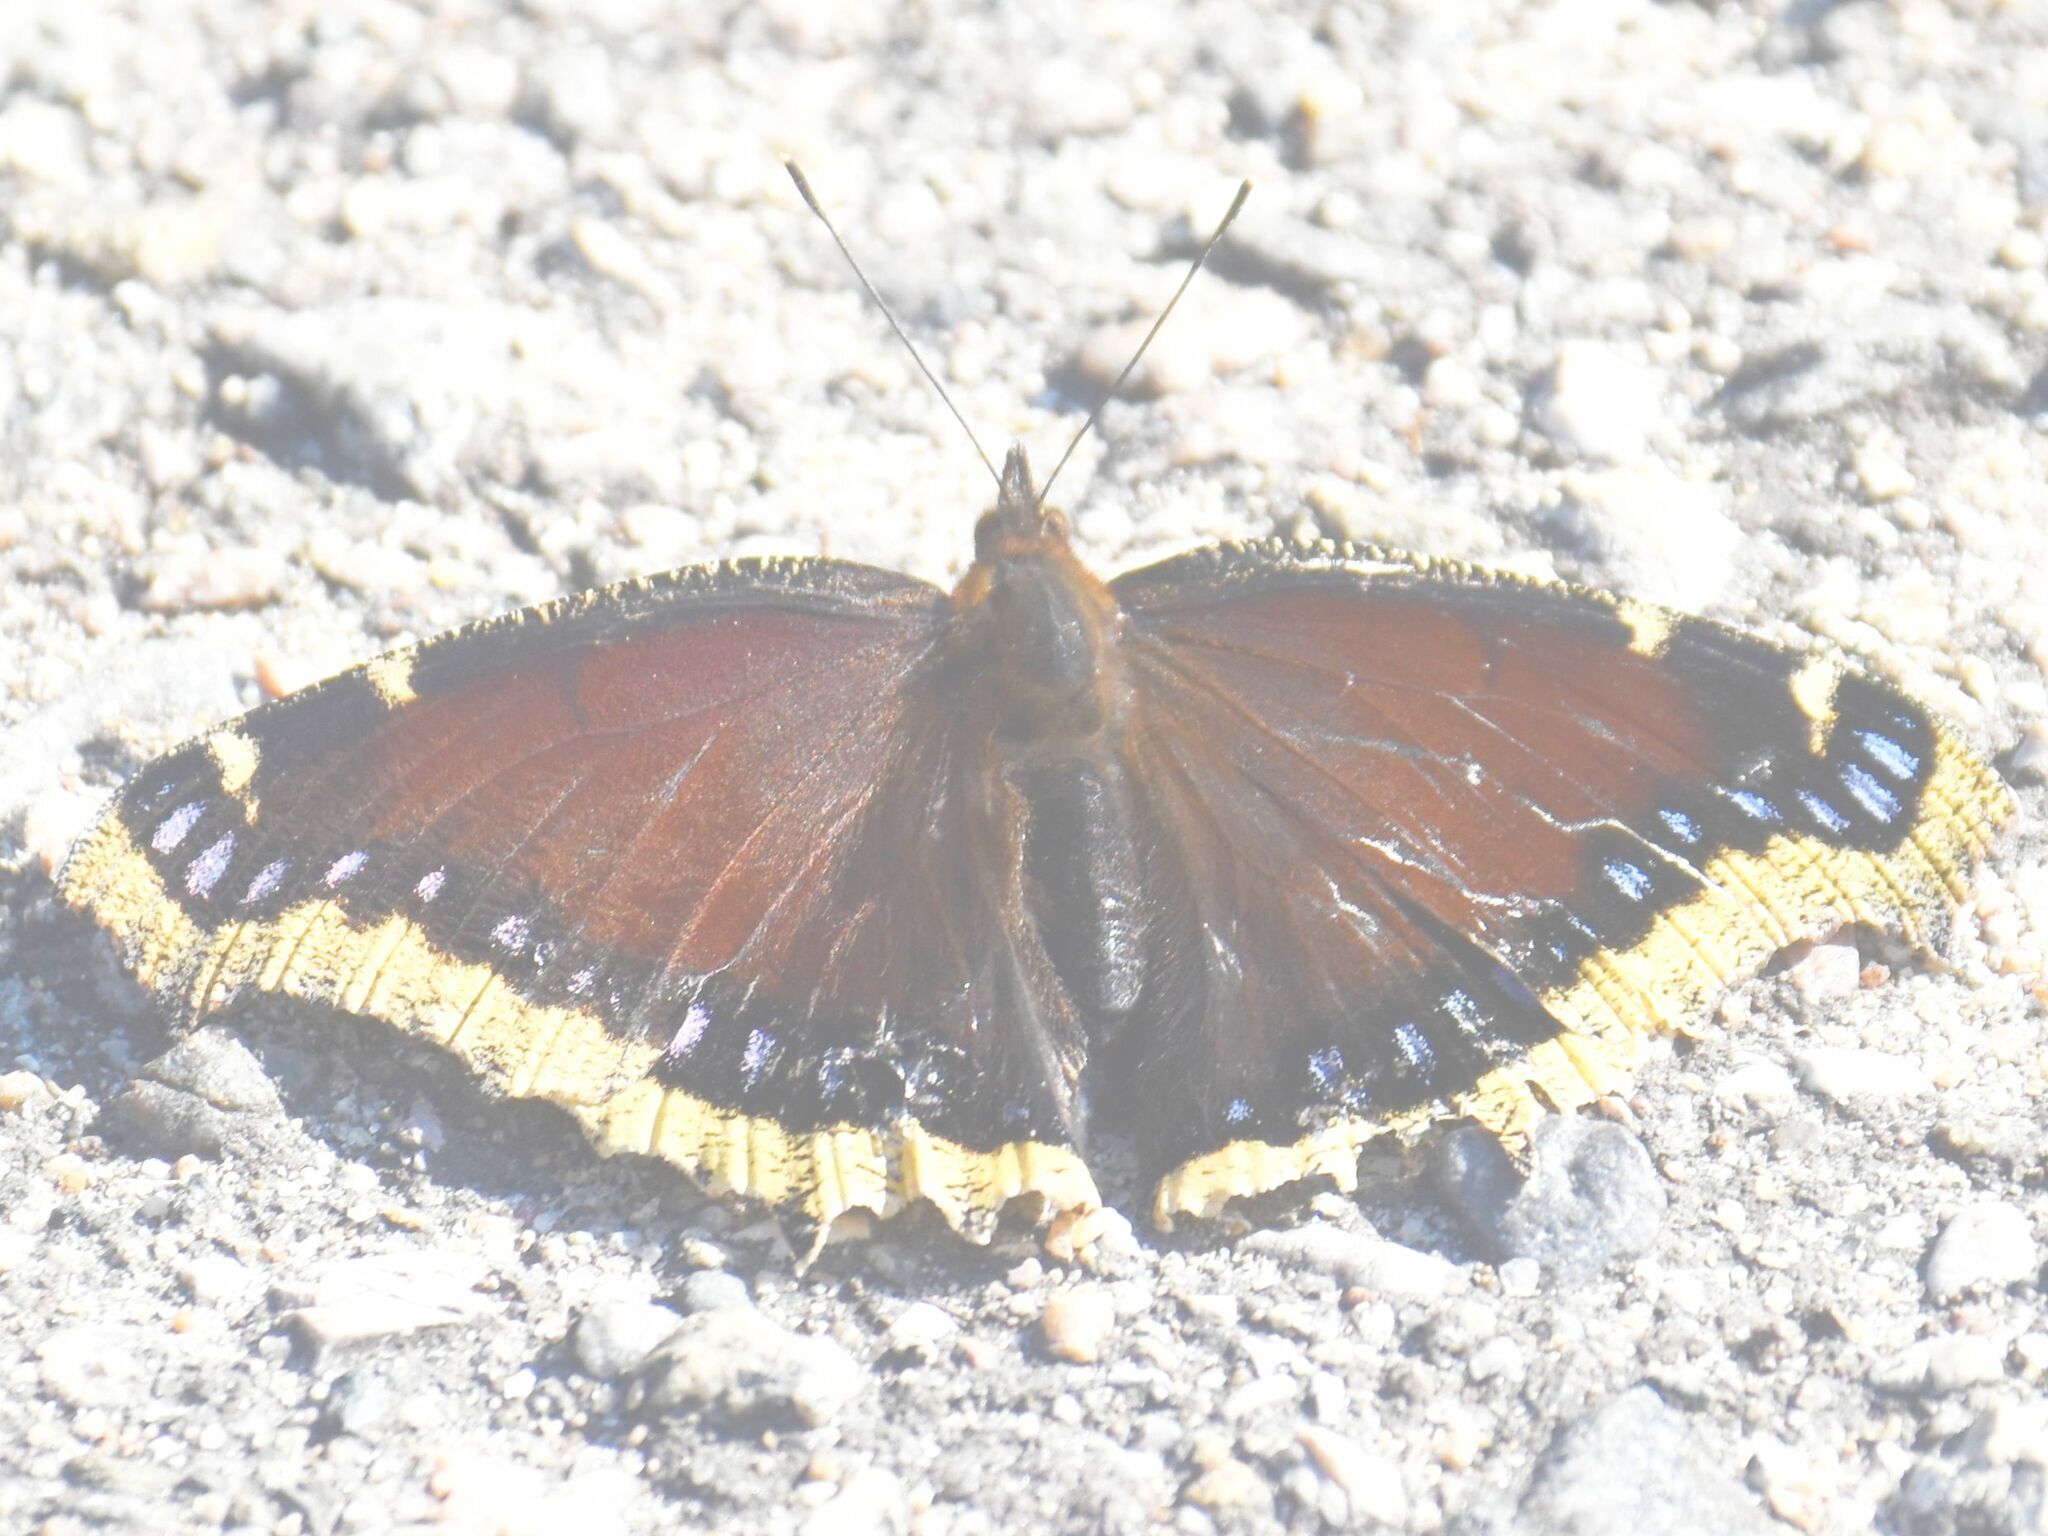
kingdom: Animalia
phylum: Arthropoda
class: Insecta
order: Lepidoptera
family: Nymphalidae
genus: Nymphalis
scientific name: Nymphalis antiopa
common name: Camberwell beauty
